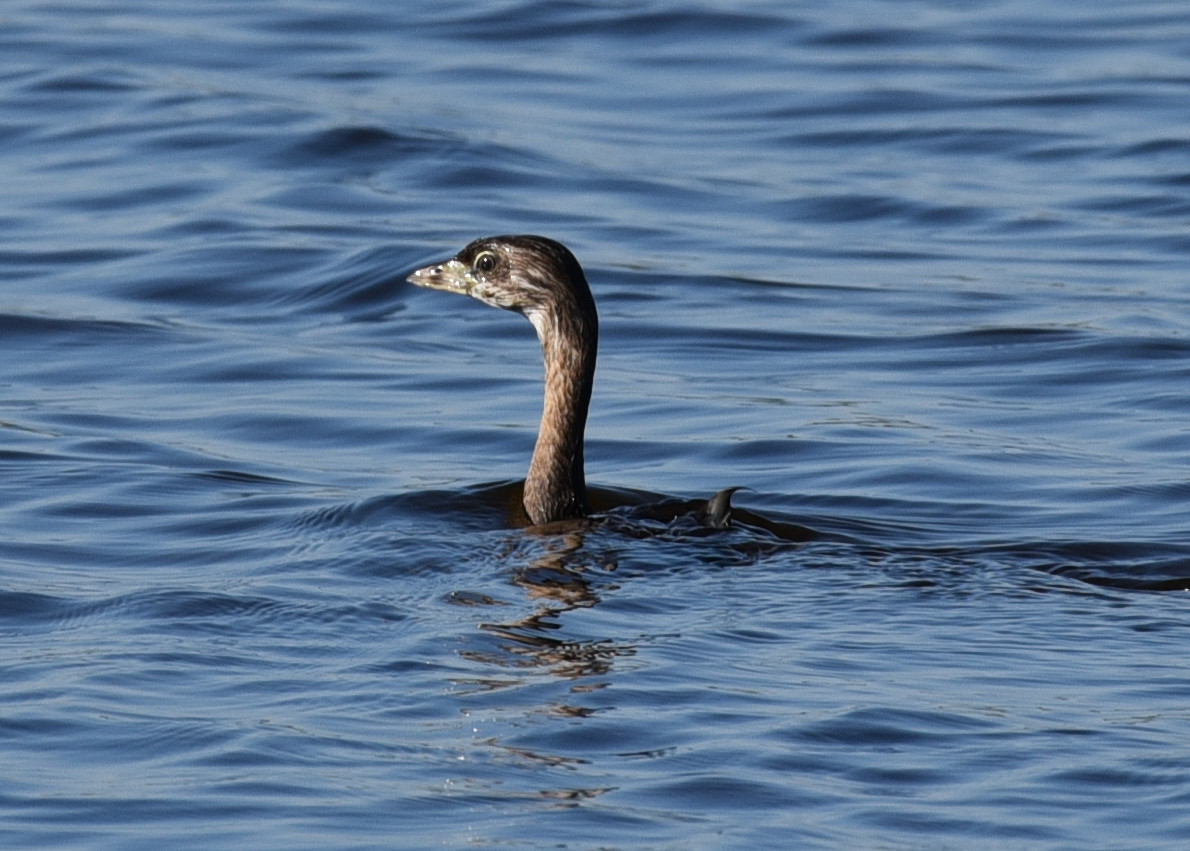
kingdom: Animalia
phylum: Chordata
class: Aves
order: Podicipediformes
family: Podicipedidae
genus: Podilymbus
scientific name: Podilymbus podiceps
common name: Pied-billed grebe
